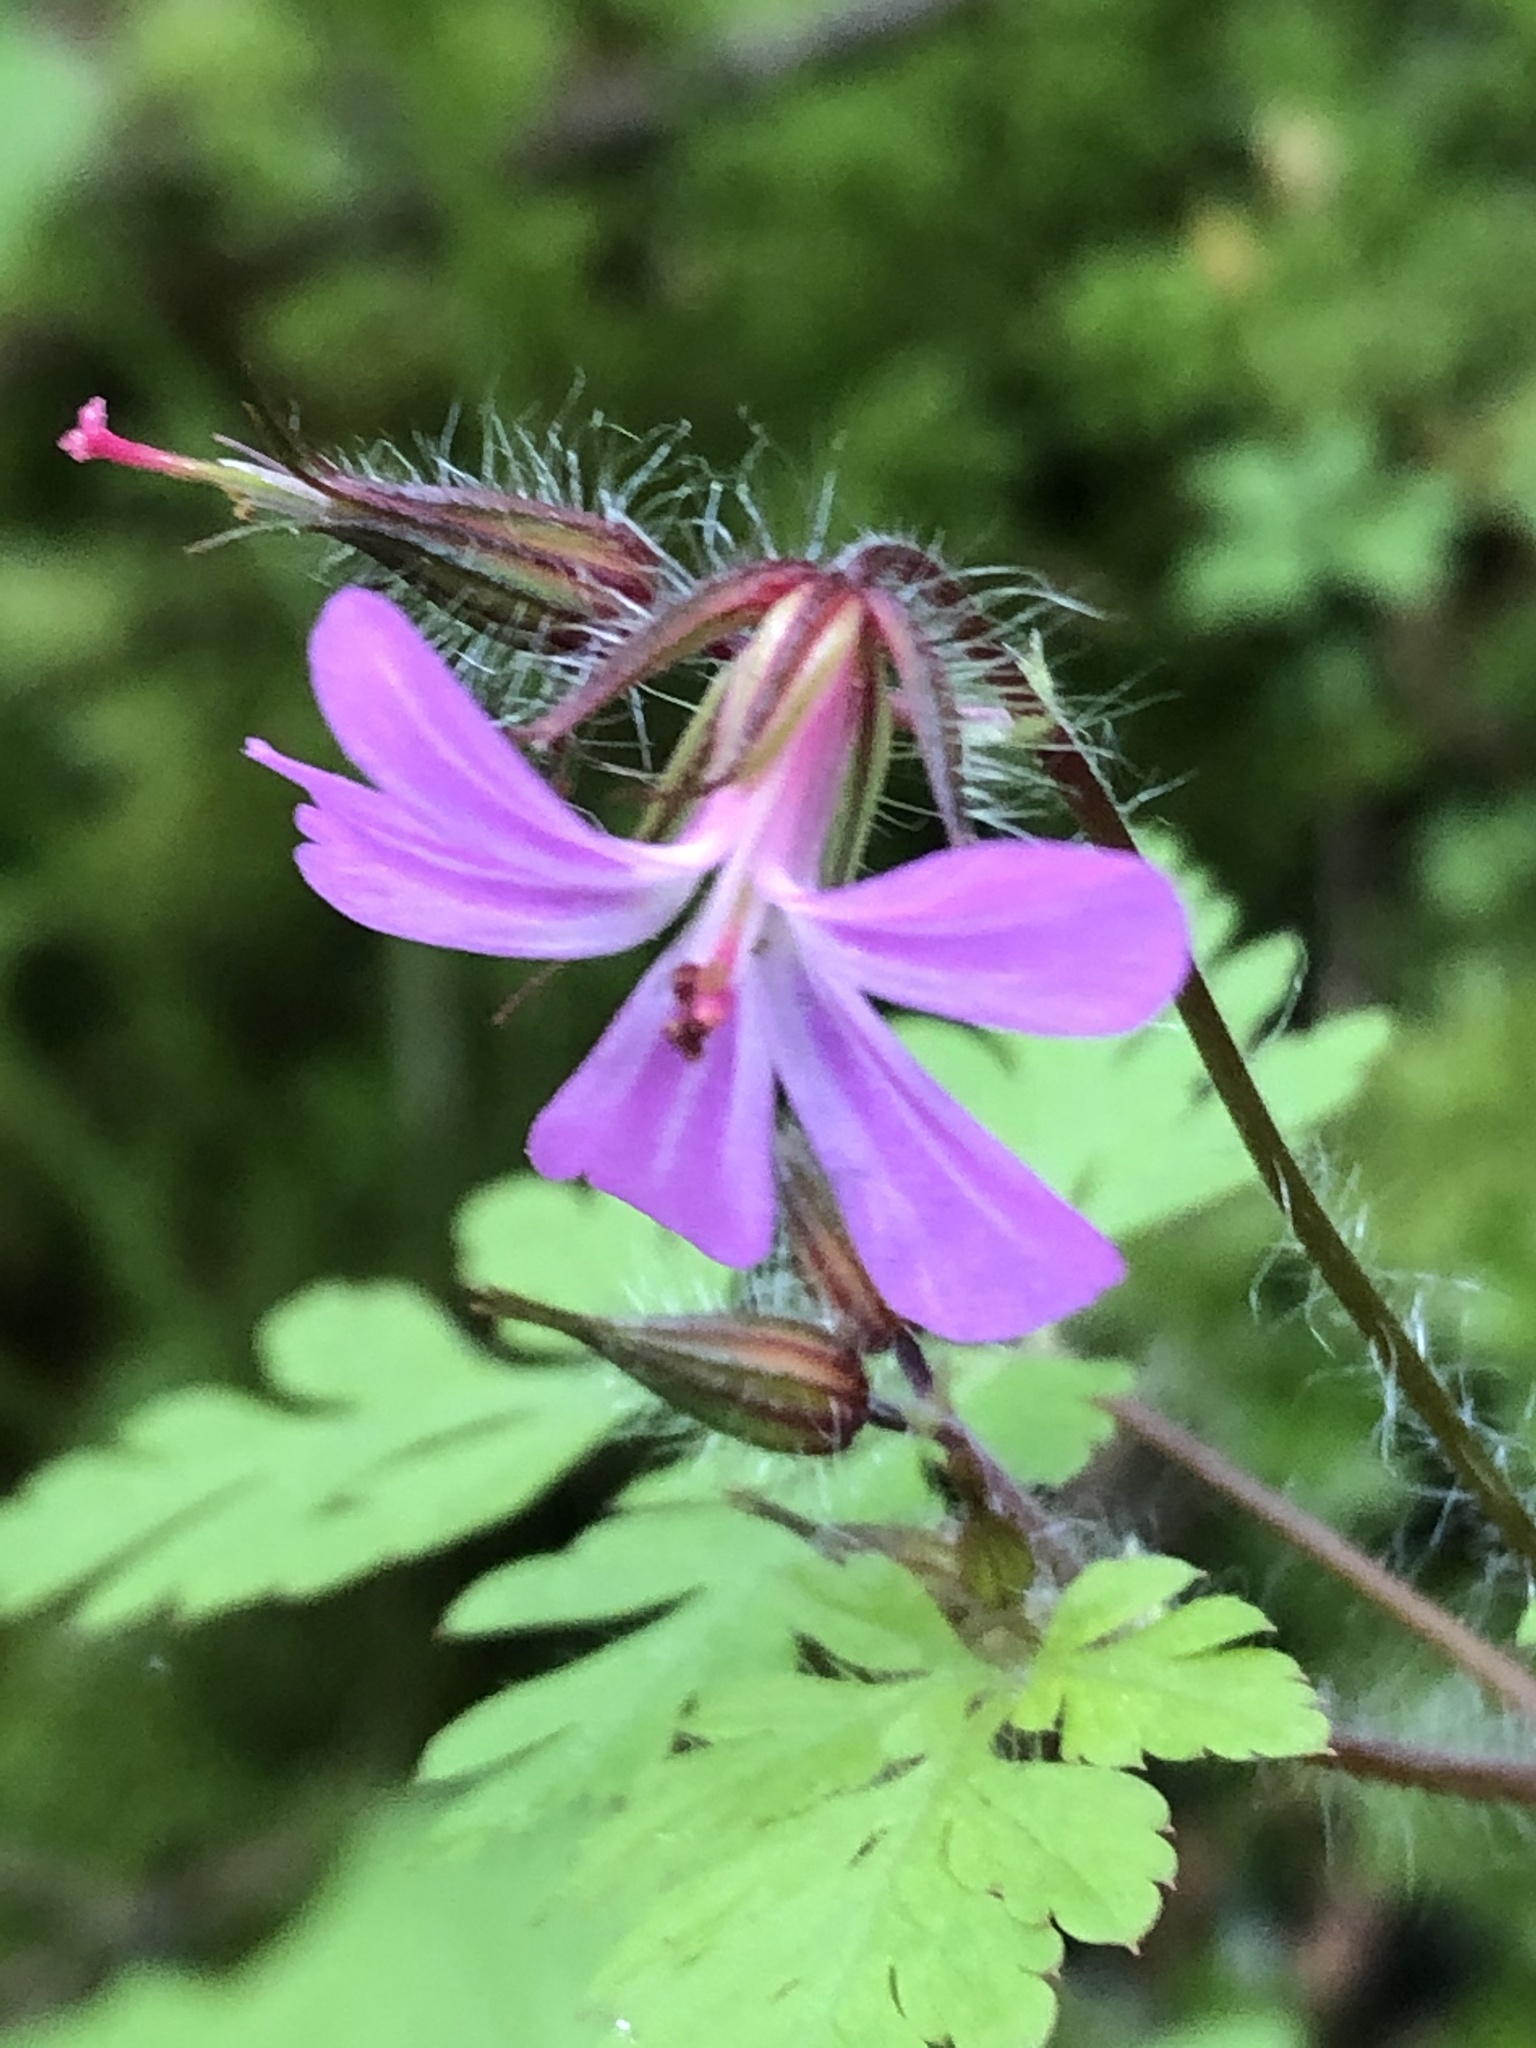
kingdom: Plantae
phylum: Tracheophyta
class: Magnoliopsida
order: Geraniales
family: Geraniaceae
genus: Geranium
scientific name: Geranium robertianum
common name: Herb-robert
